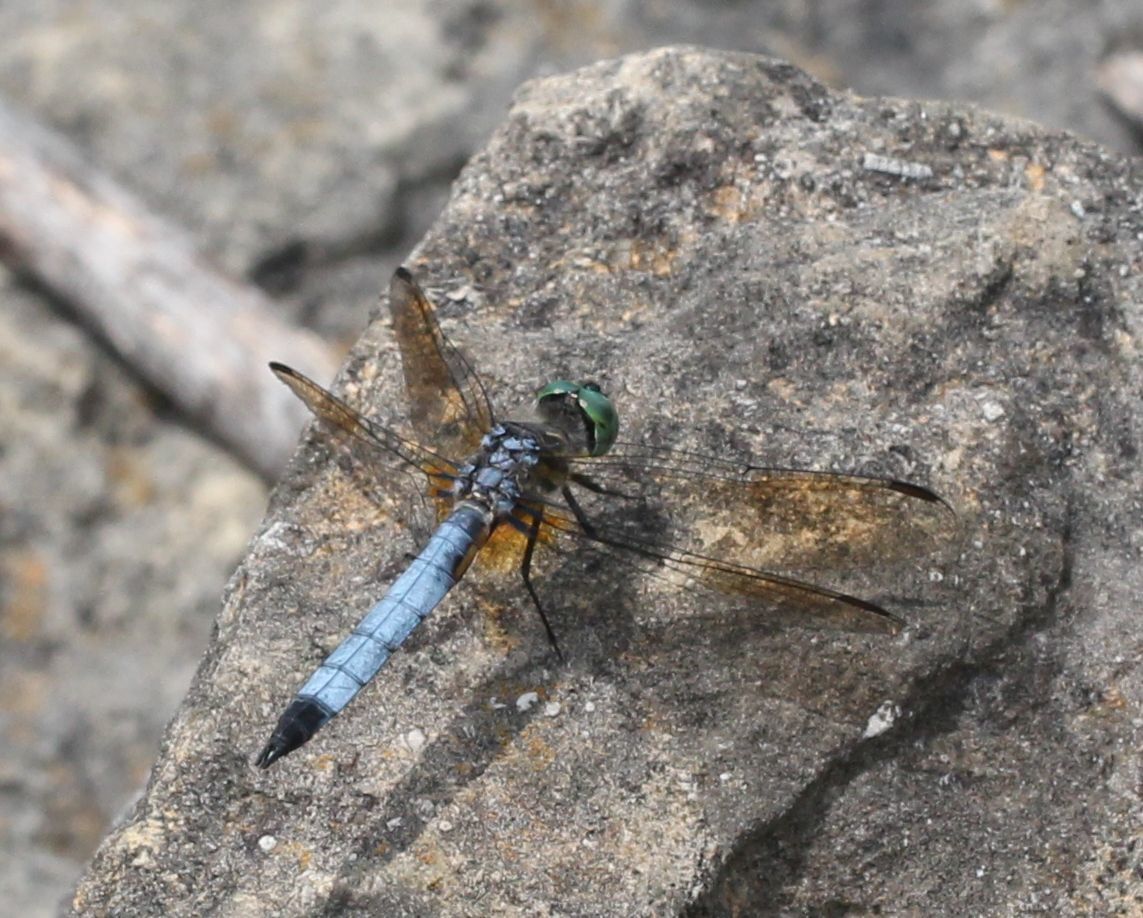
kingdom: Animalia
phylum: Arthropoda
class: Insecta
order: Odonata
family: Libellulidae
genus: Pachydiplax
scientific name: Pachydiplax longipennis
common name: Blue dasher
